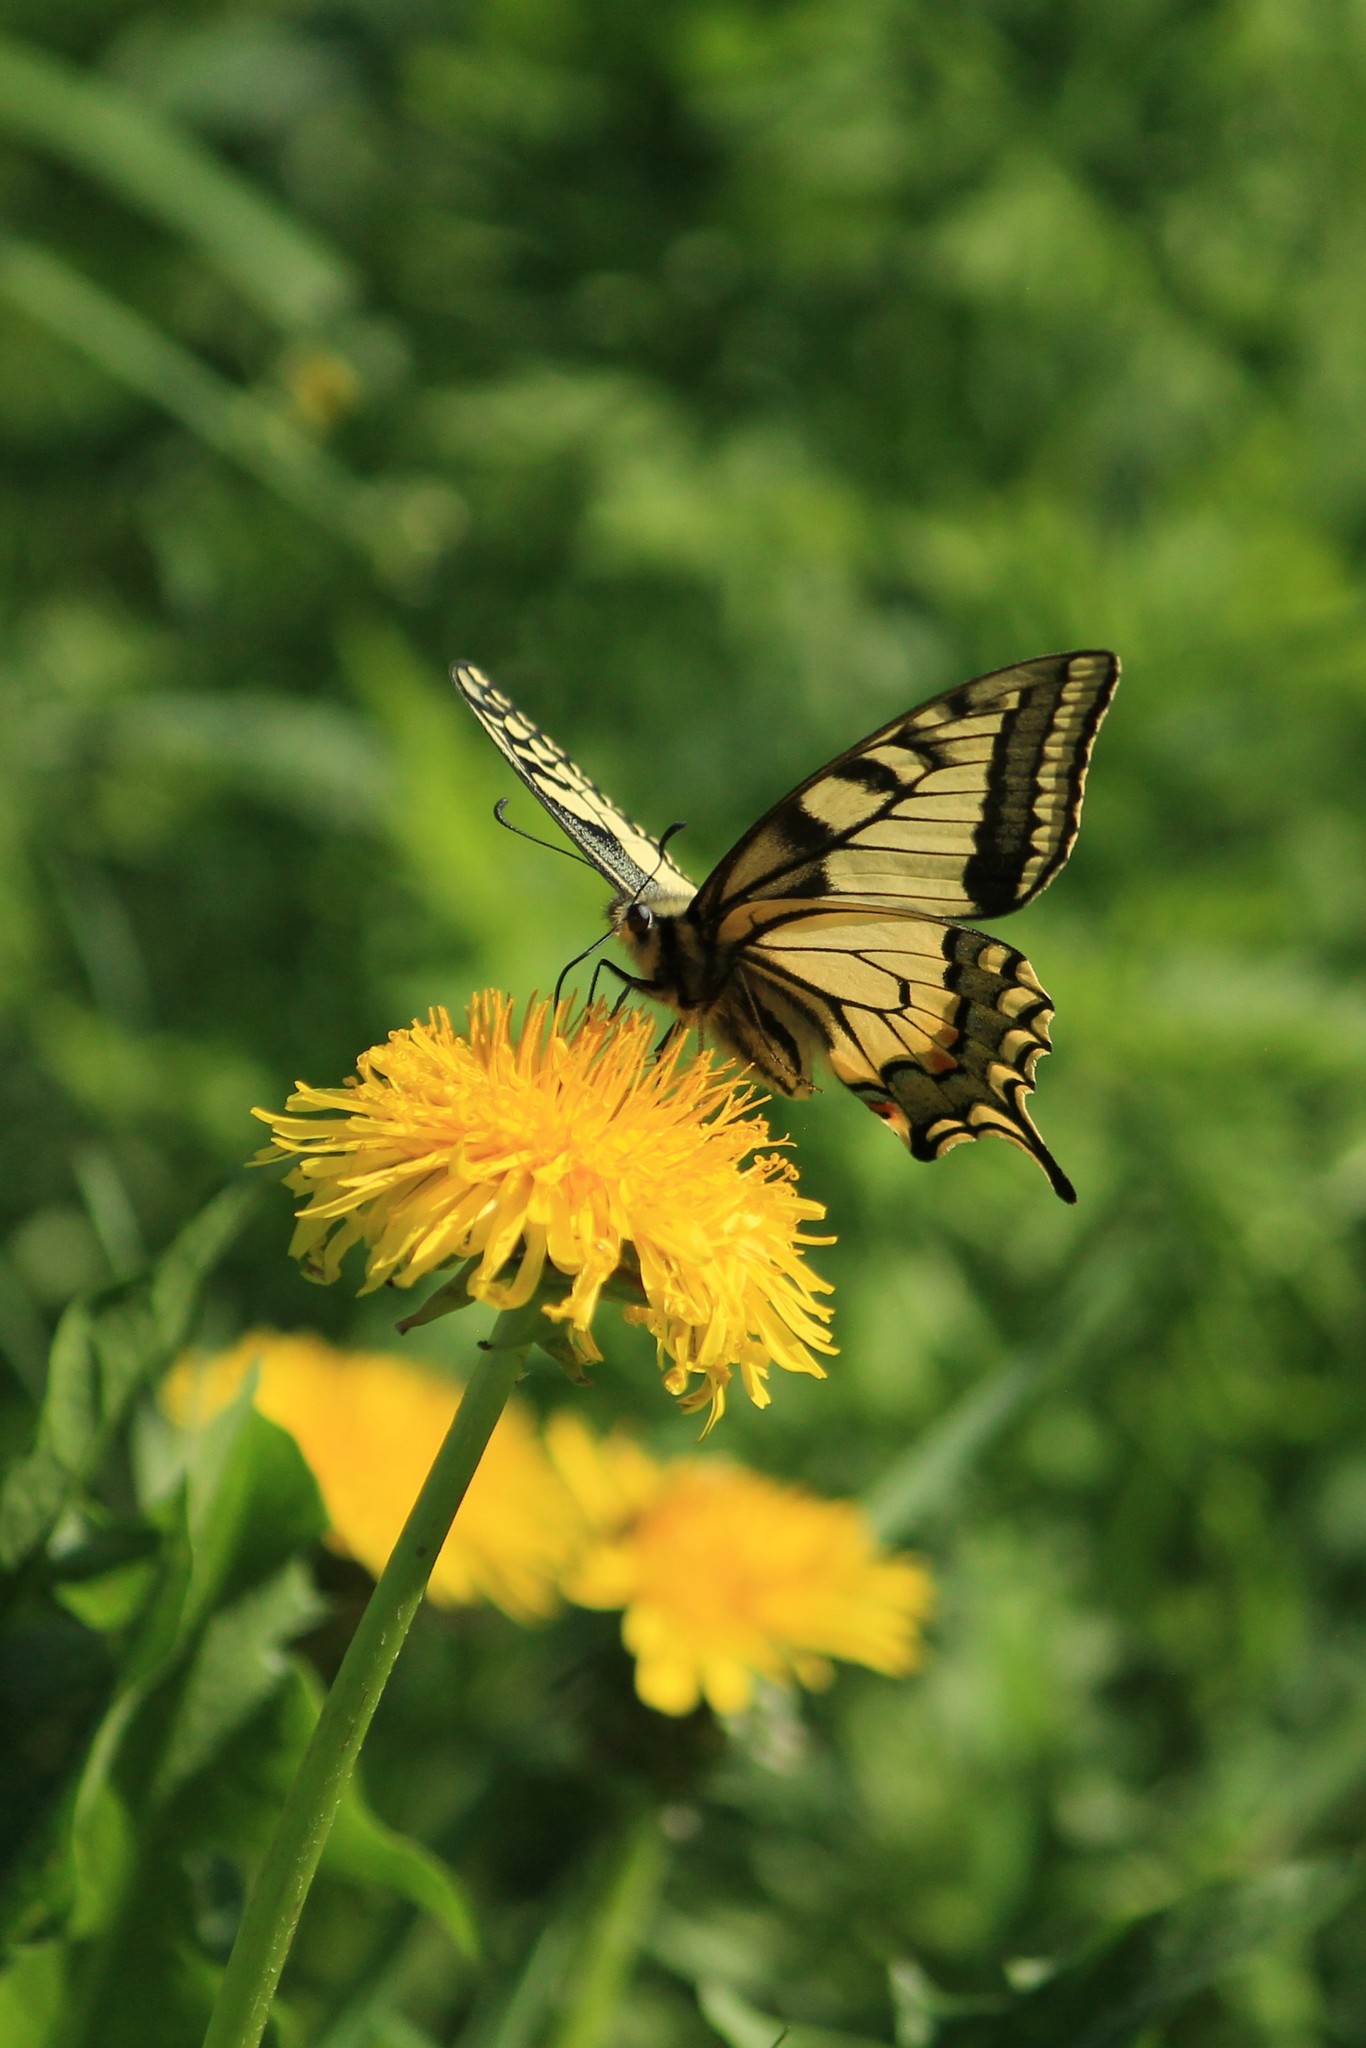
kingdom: Animalia
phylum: Arthropoda
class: Insecta
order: Lepidoptera
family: Papilionidae
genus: Papilio
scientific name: Papilio machaon
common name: Swallowtail
